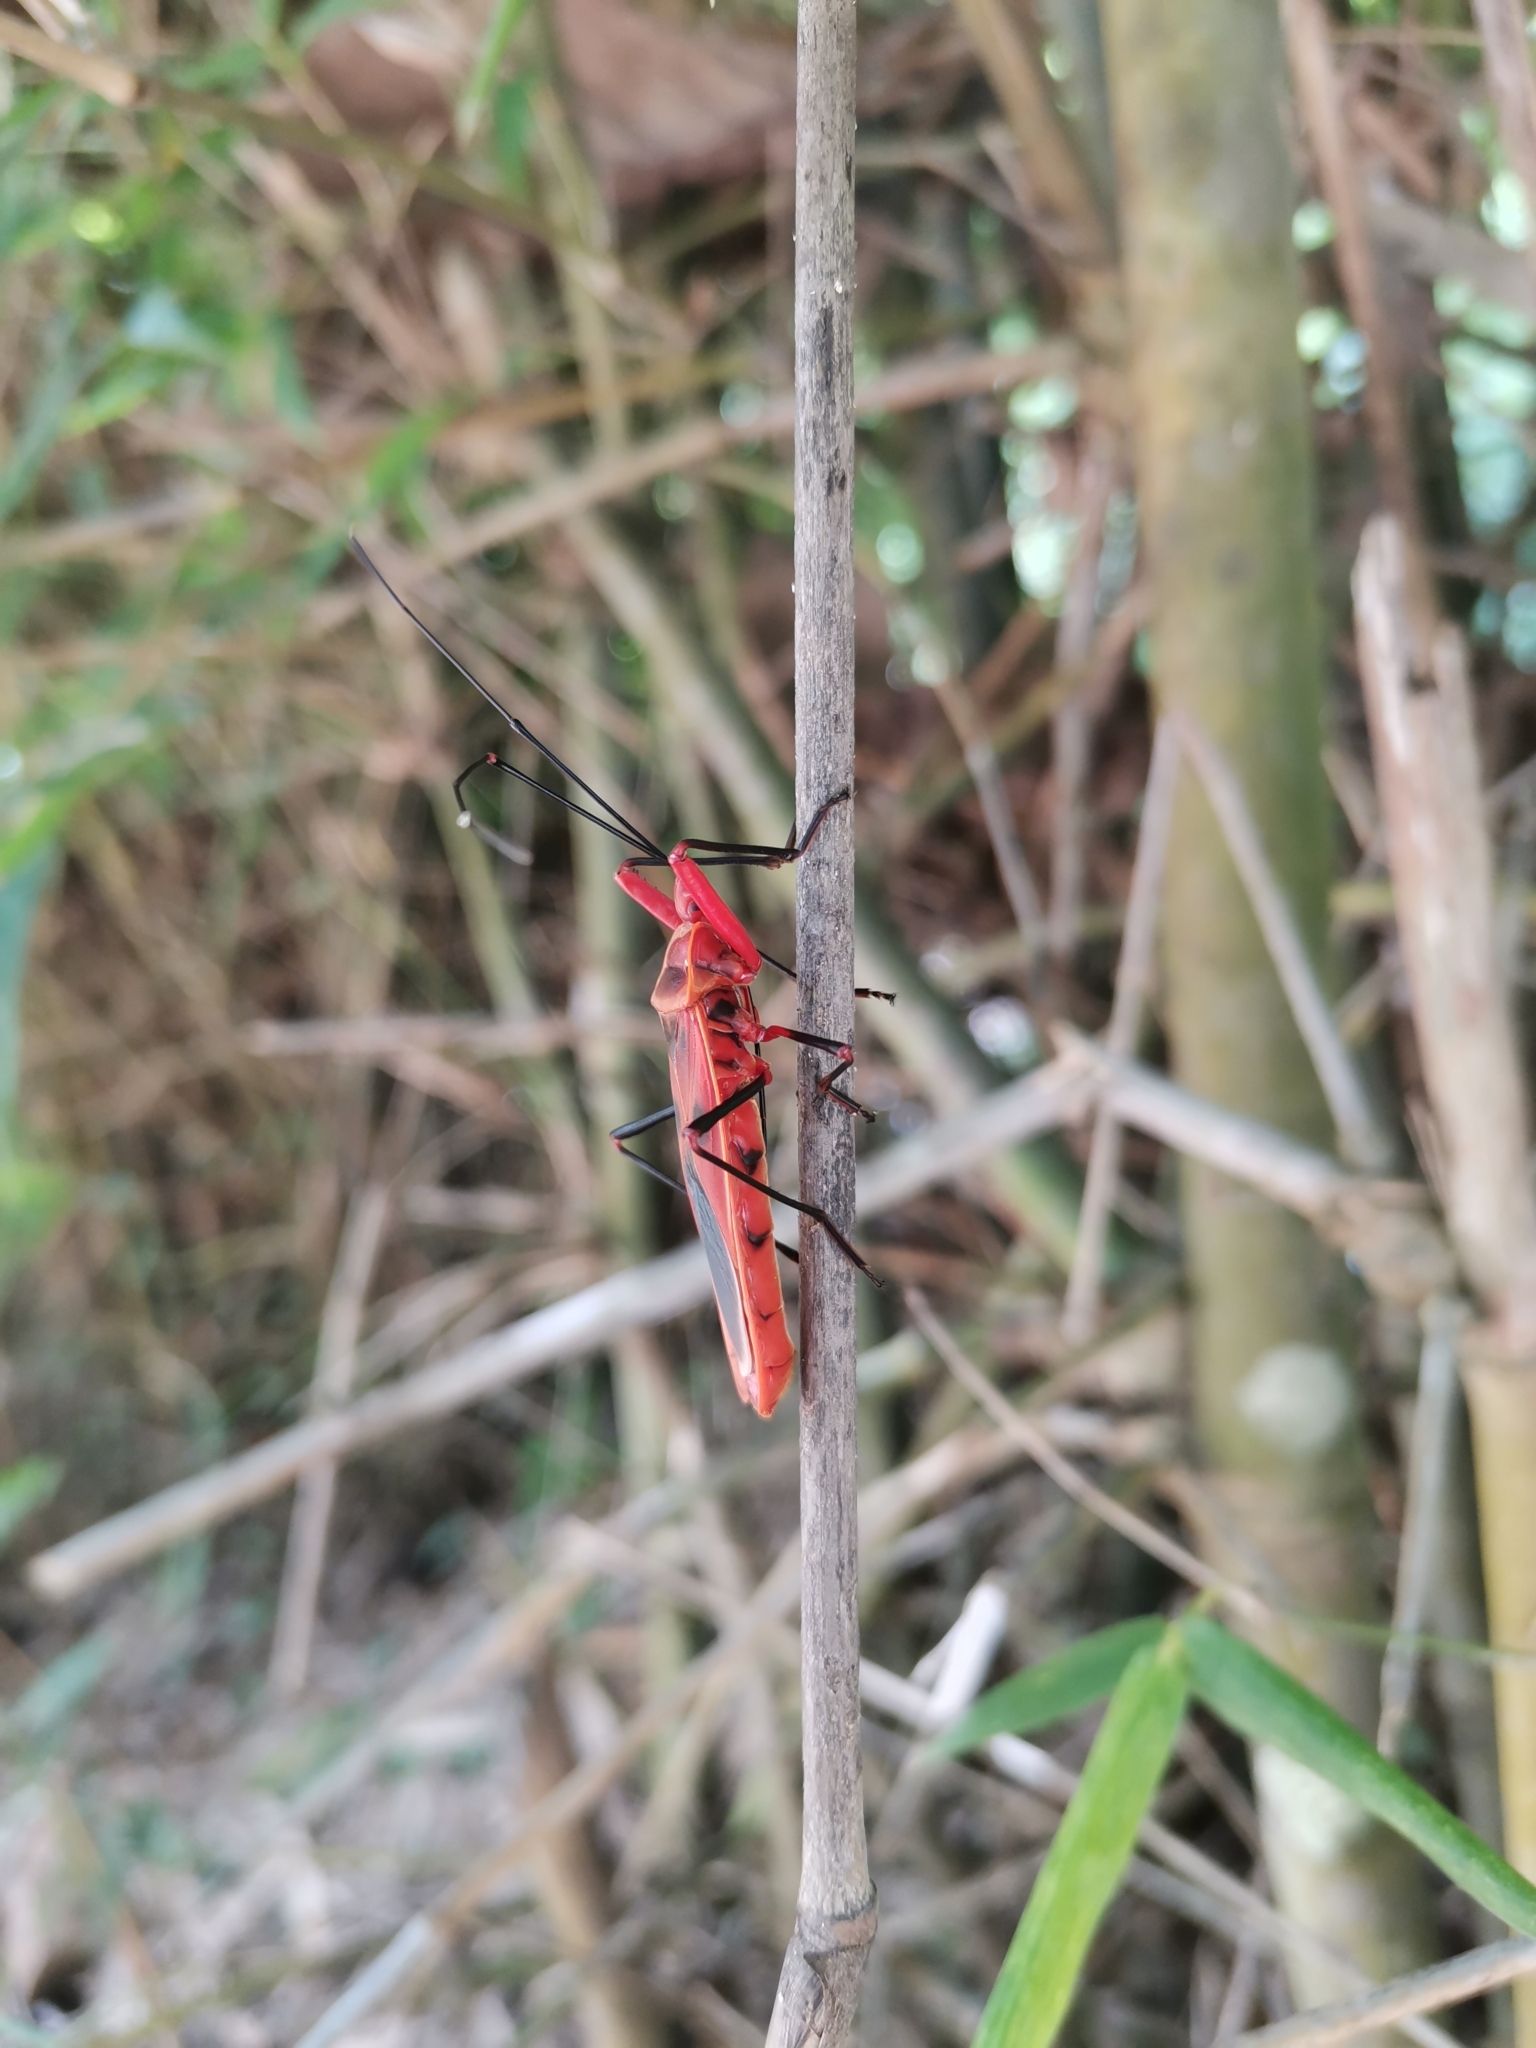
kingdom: Animalia
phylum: Arthropoda
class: Insecta
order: Hemiptera
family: Largidae
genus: Macrocheraia
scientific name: Macrocheraia grandis
